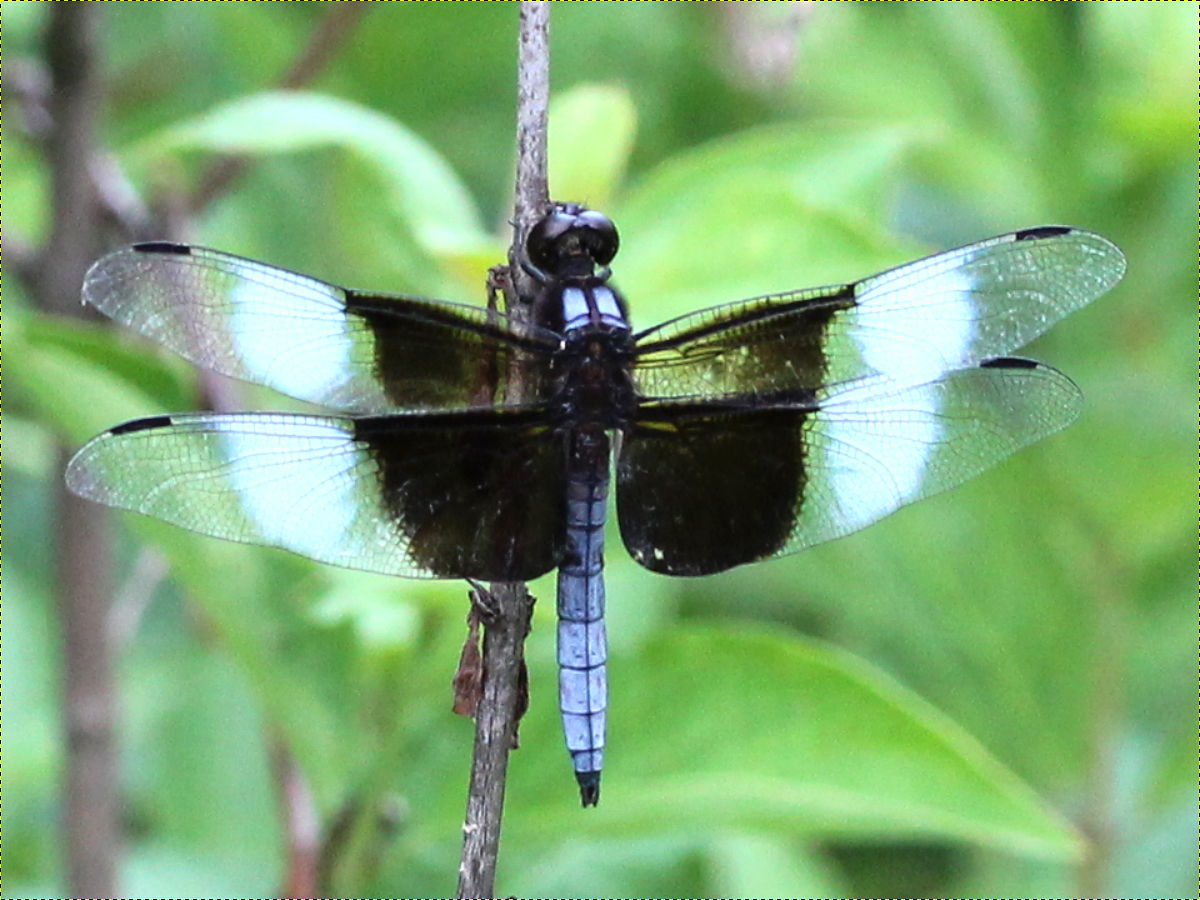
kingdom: Animalia
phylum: Arthropoda
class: Insecta
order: Odonata
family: Libellulidae
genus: Libellula
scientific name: Libellula luctuosa
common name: Widow skimmer
